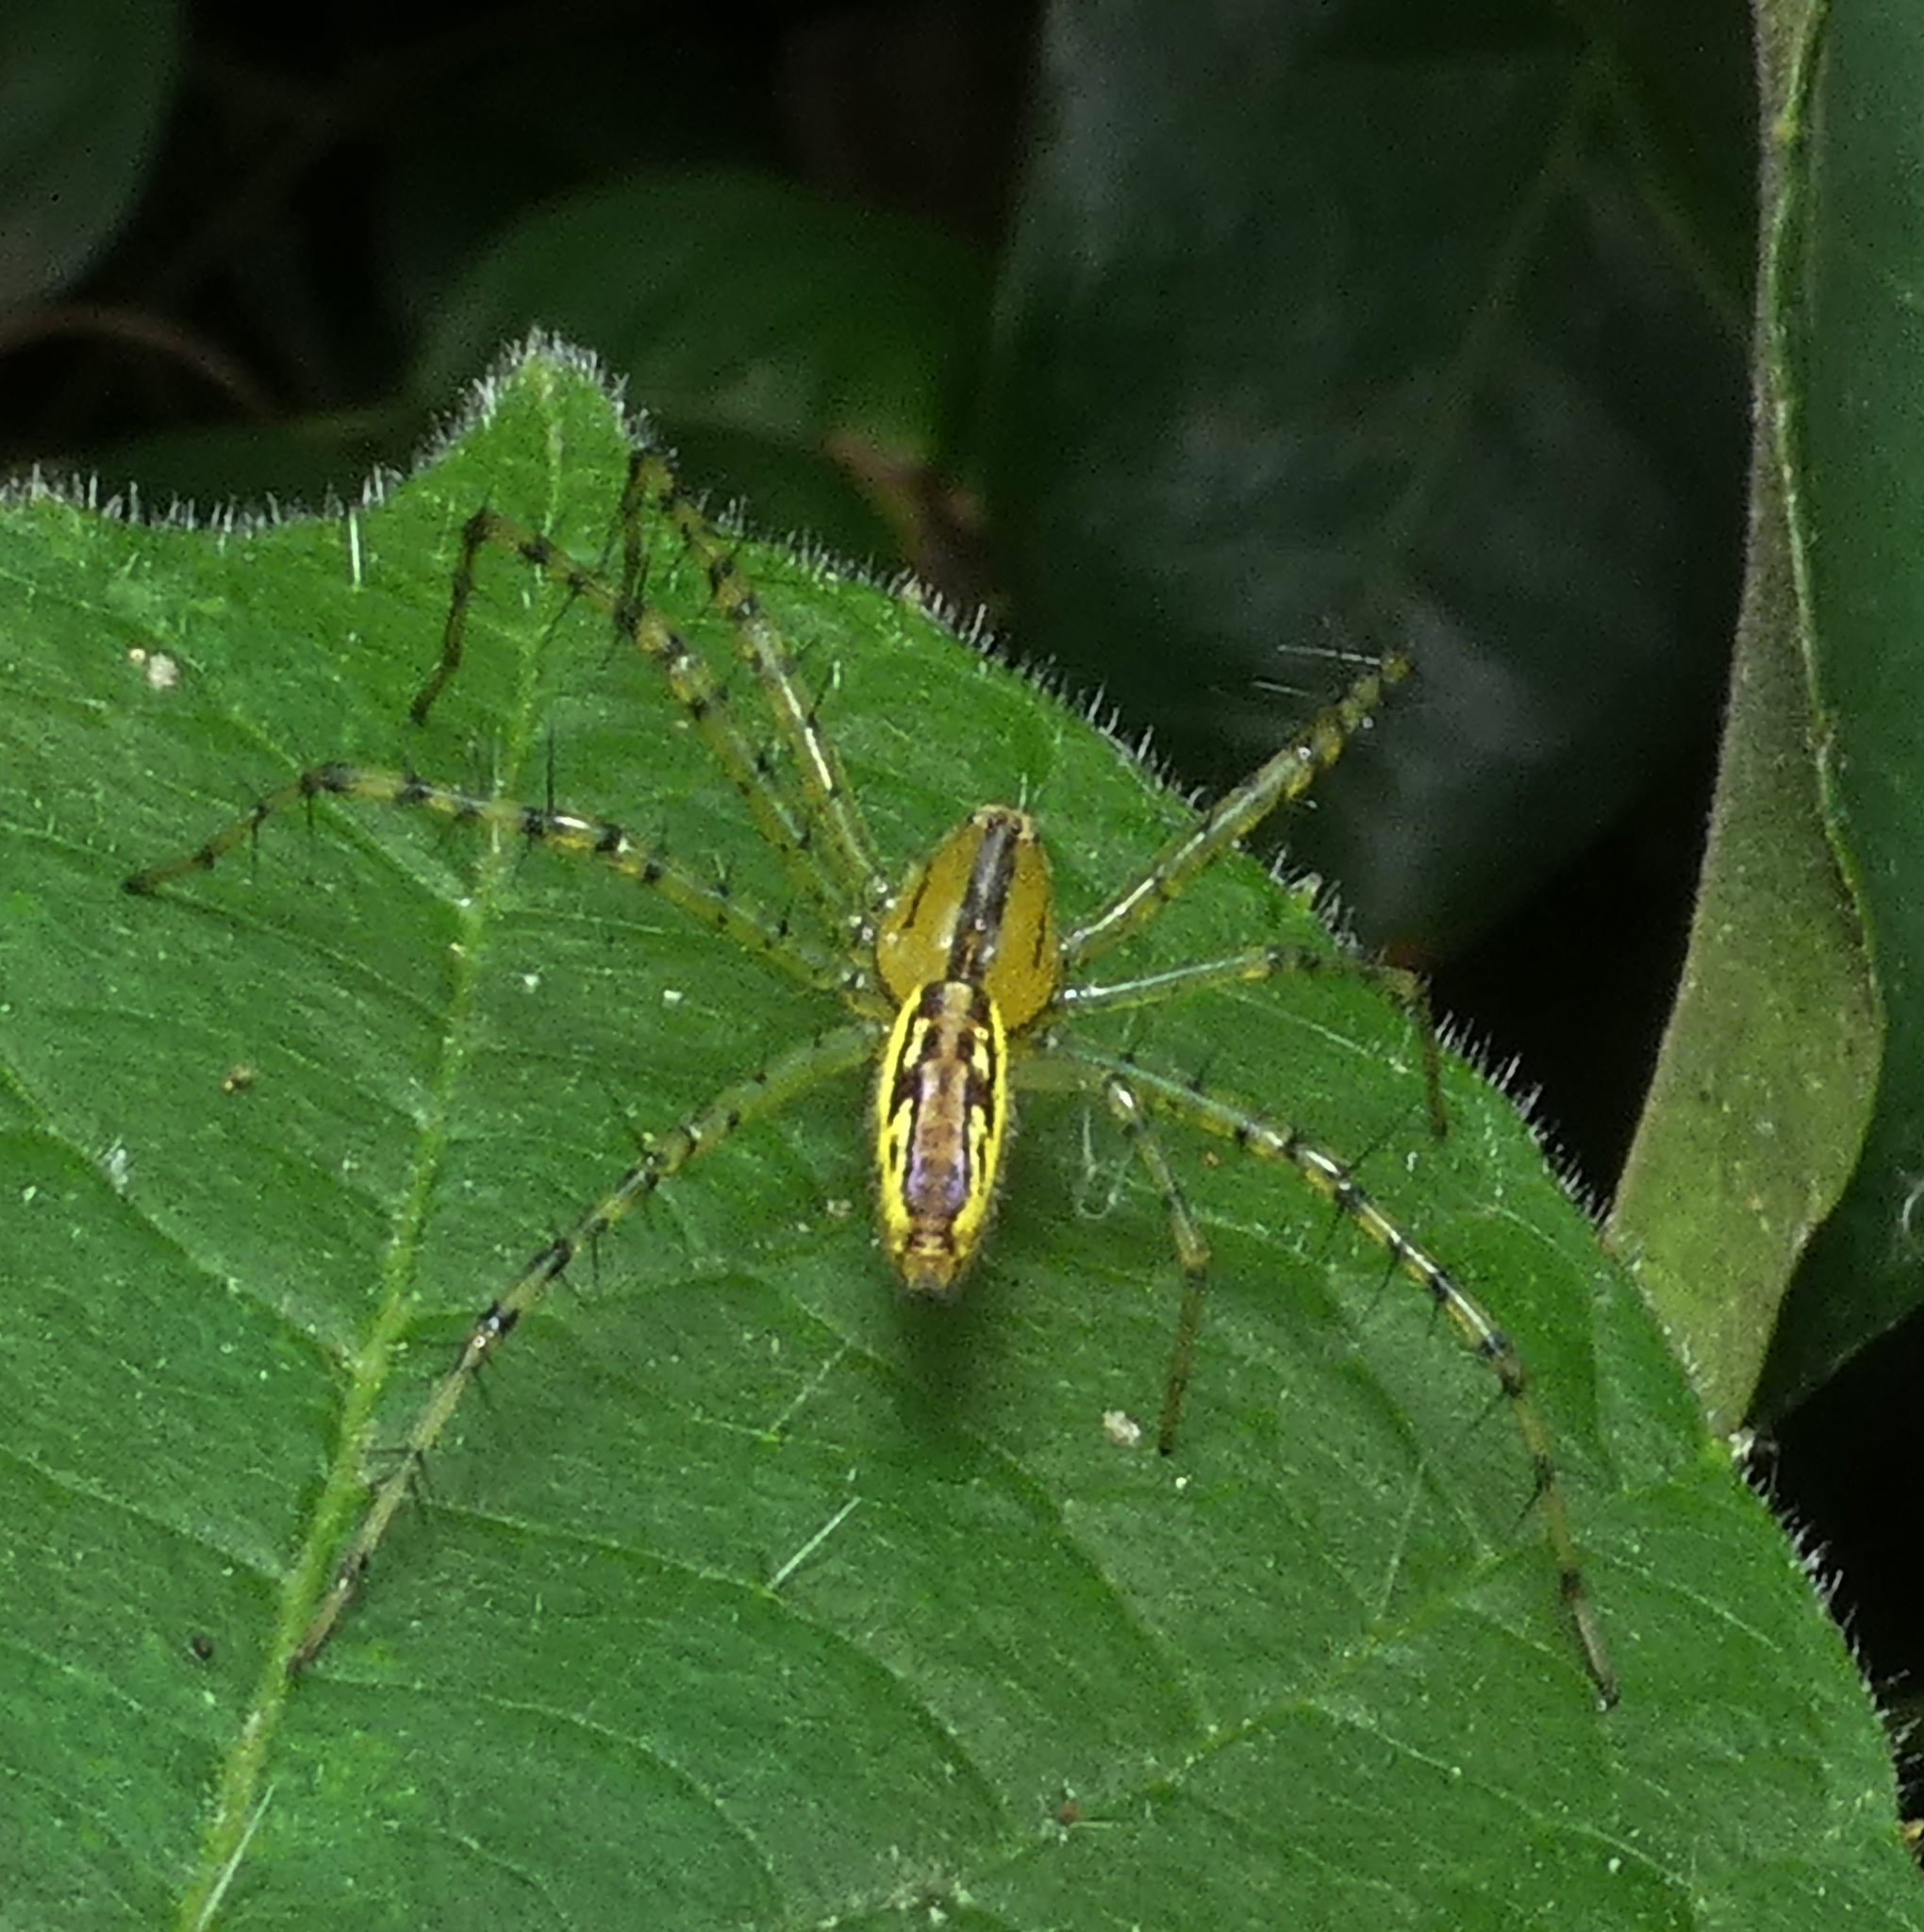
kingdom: Animalia
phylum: Arthropoda
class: Arachnida
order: Araneae
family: Oxyopidae
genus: Peucetia
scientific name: Peucetia rubrolineata
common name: Lynx spiders
